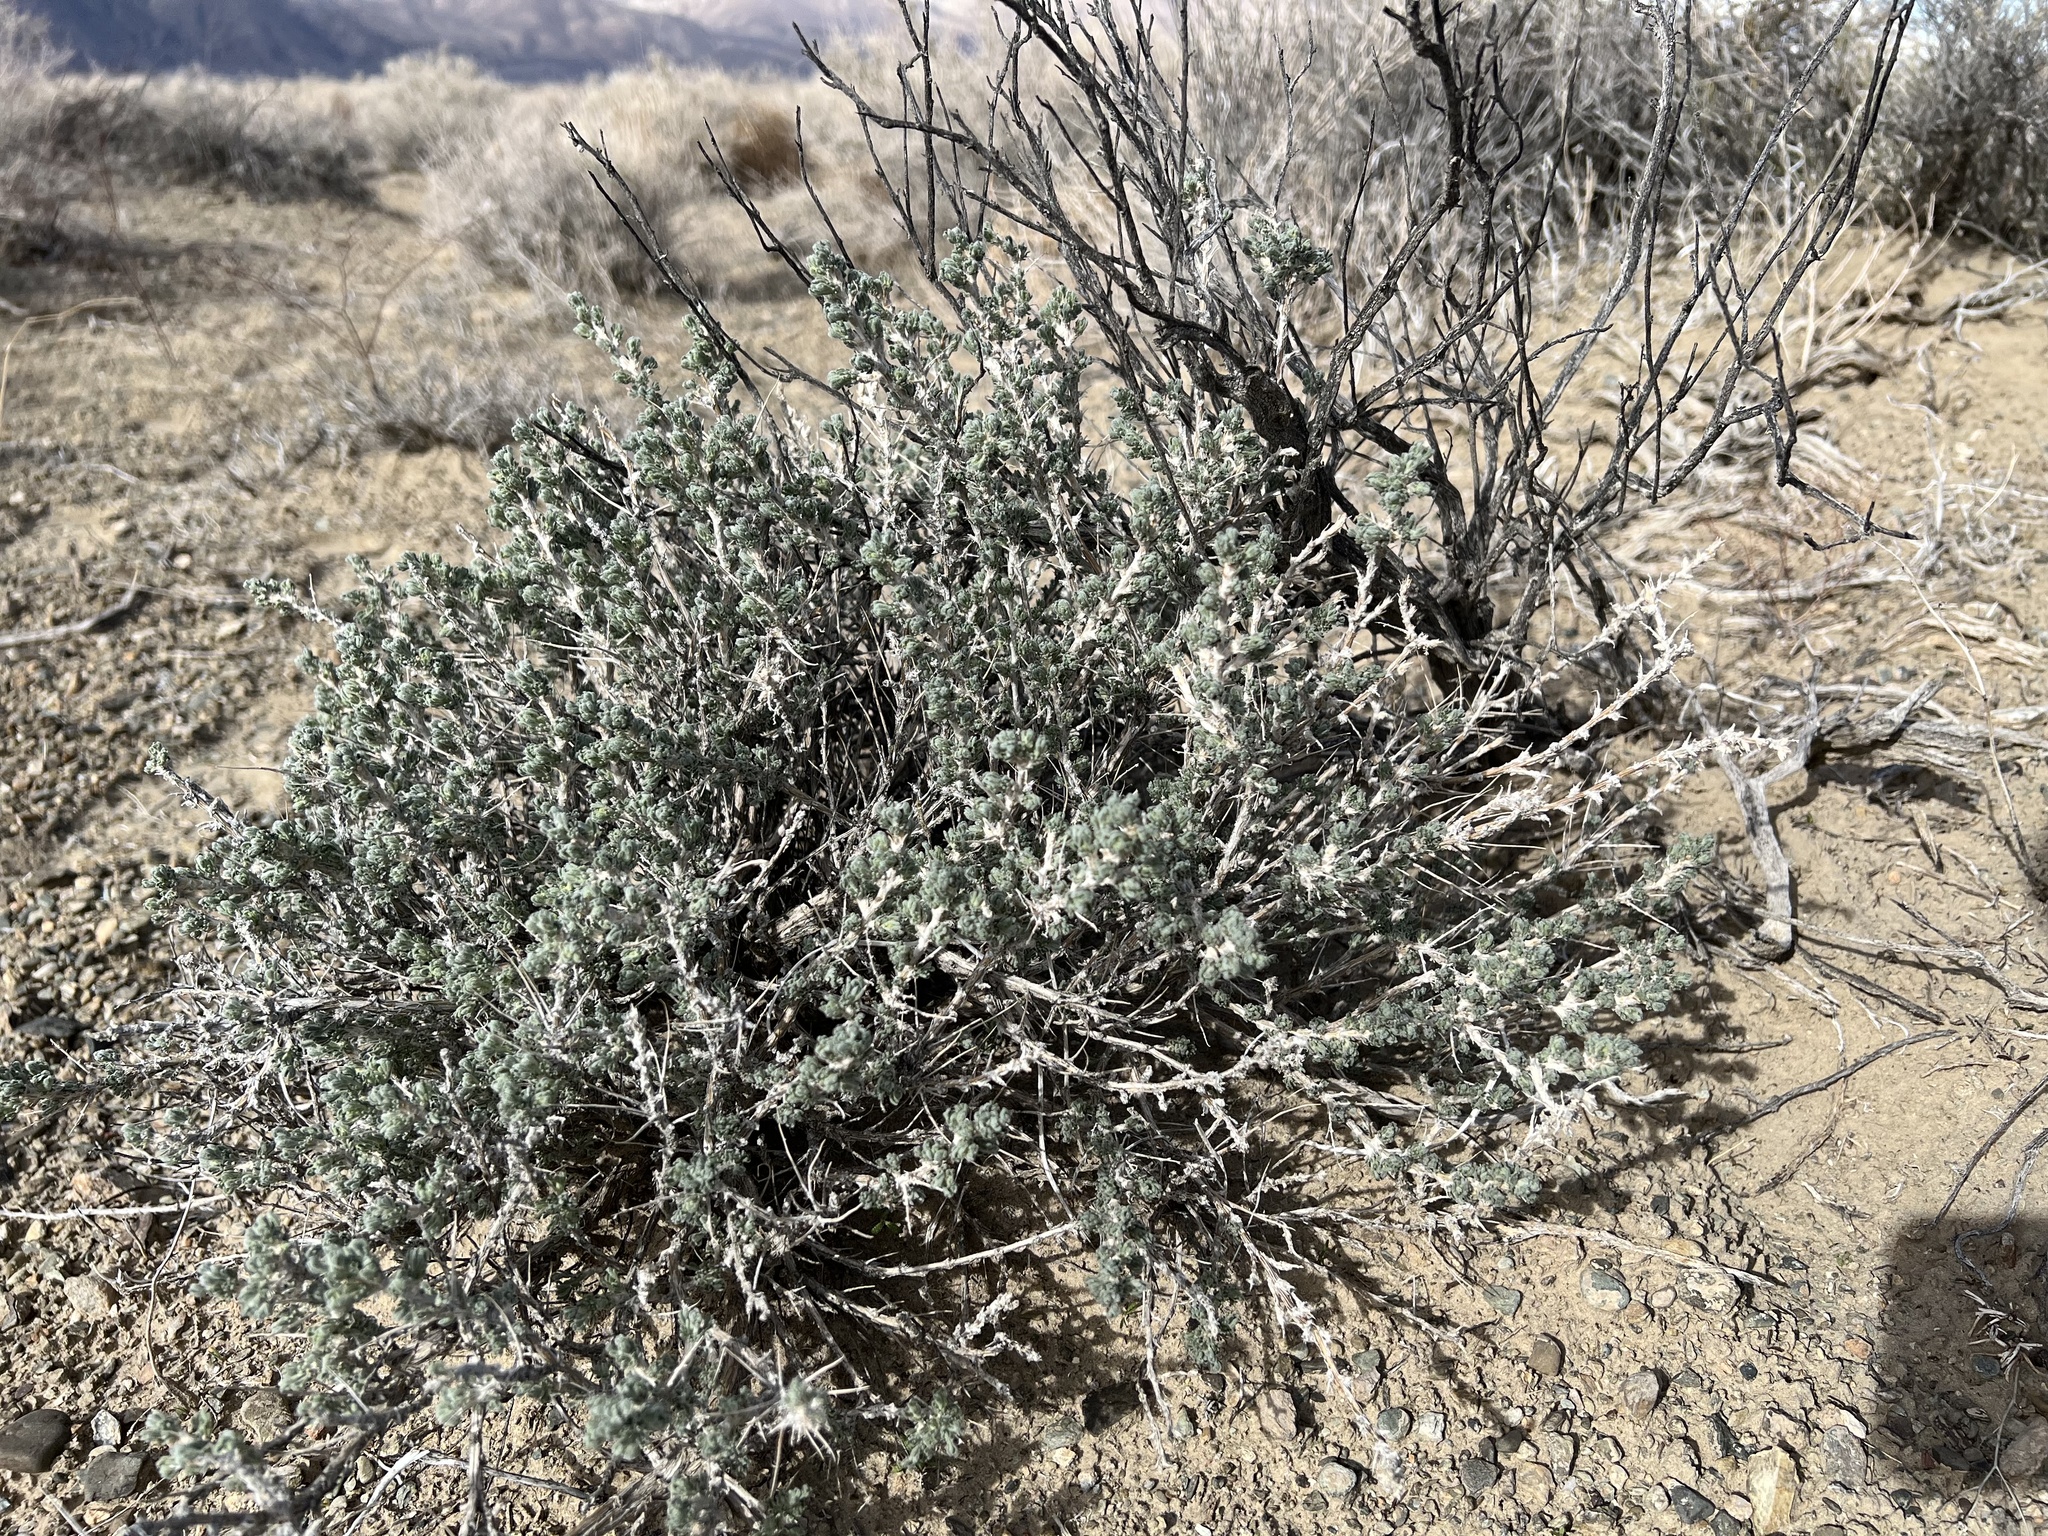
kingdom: Plantae
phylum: Tracheophyta
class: Magnoliopsida
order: Asterales
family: Asteraceae
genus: Artemisia
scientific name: Artemisia spinescens
